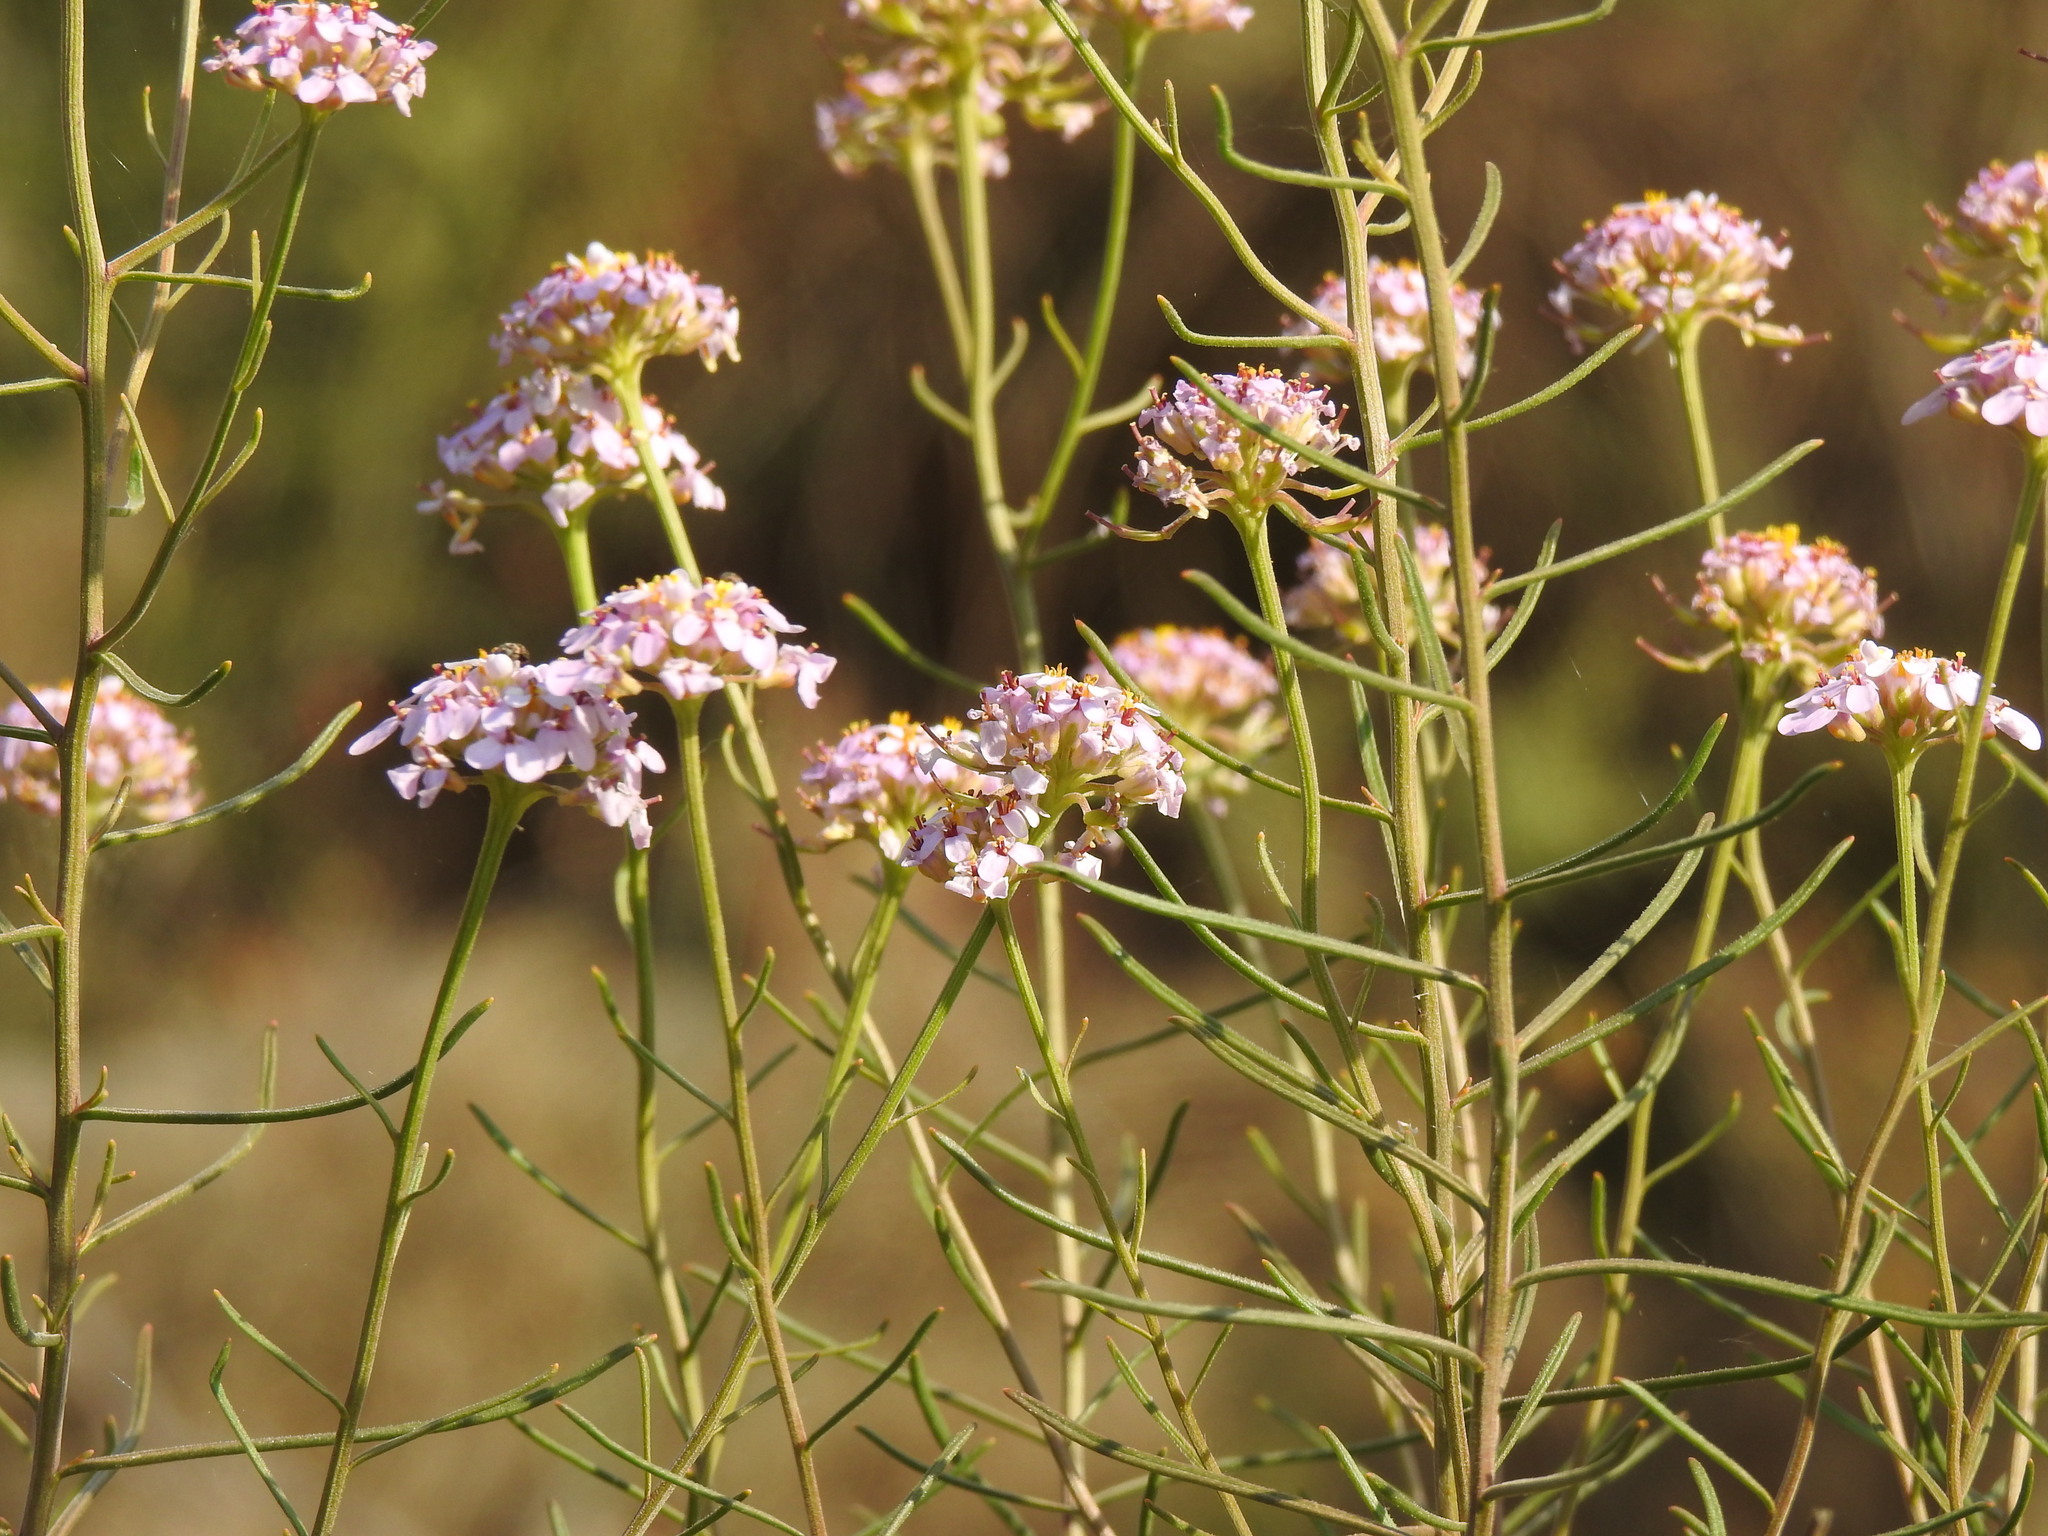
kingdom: Plantae
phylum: Tracheophyta
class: Magnoliopsida
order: Brassicales
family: Brassicaceae
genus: Iberis
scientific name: Iberis ciliata
